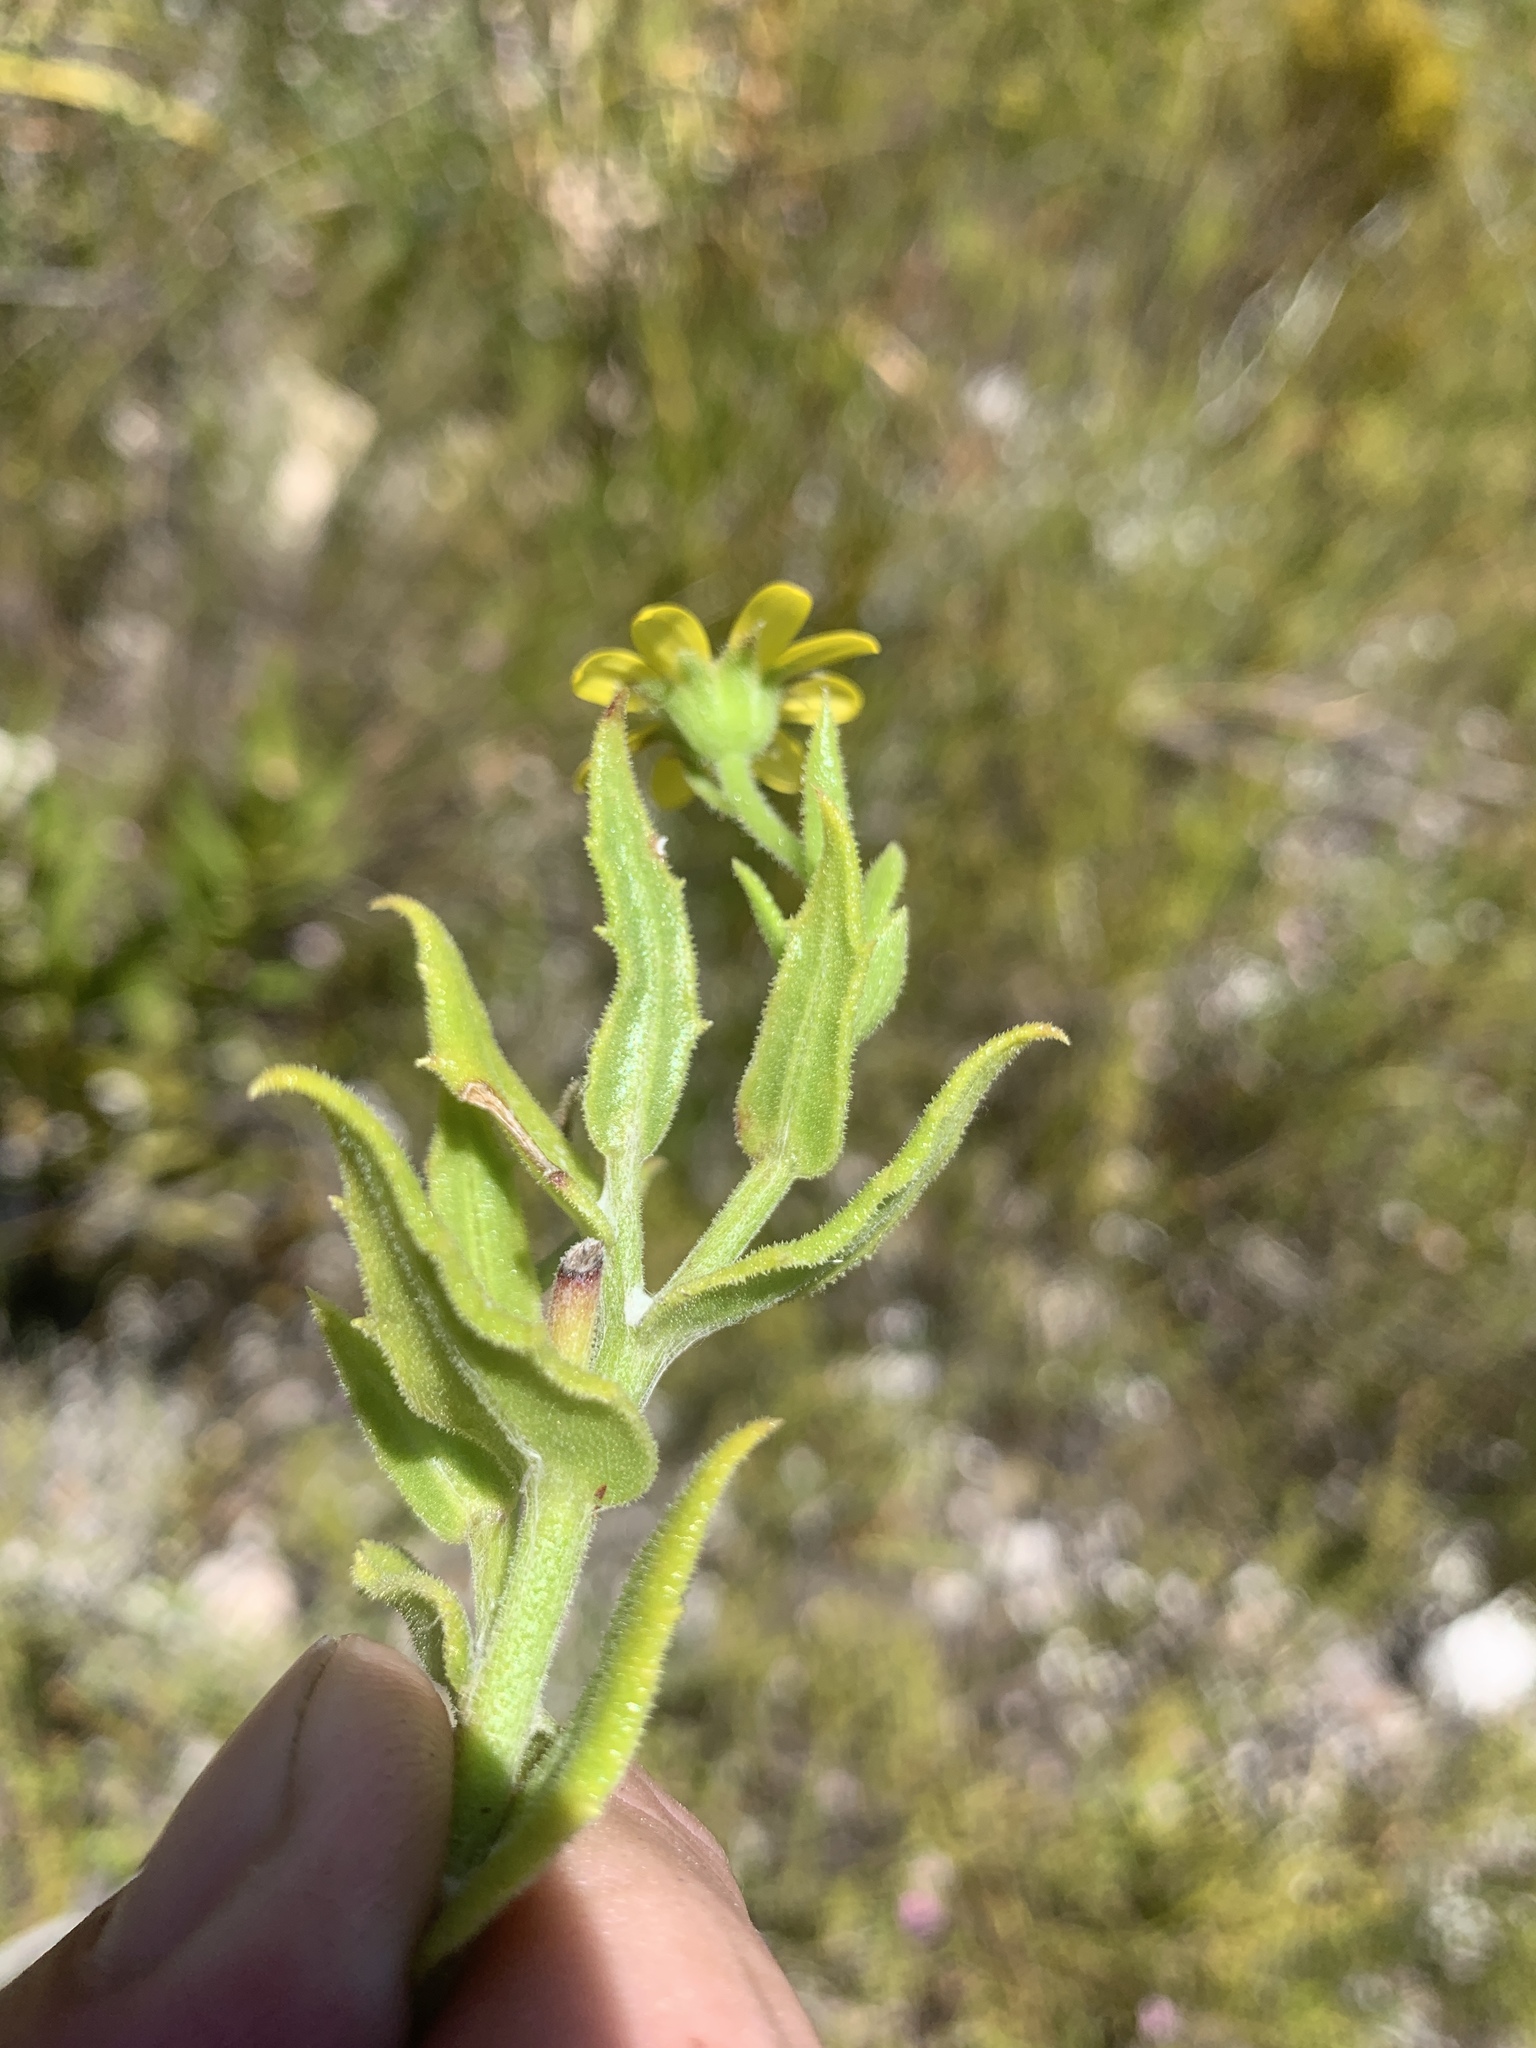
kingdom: Plantae
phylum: Tracheophyta
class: Magnoliopsida
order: Asterales
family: Asteraceae
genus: Osteospermum
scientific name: Osteospermum ilicifolium
